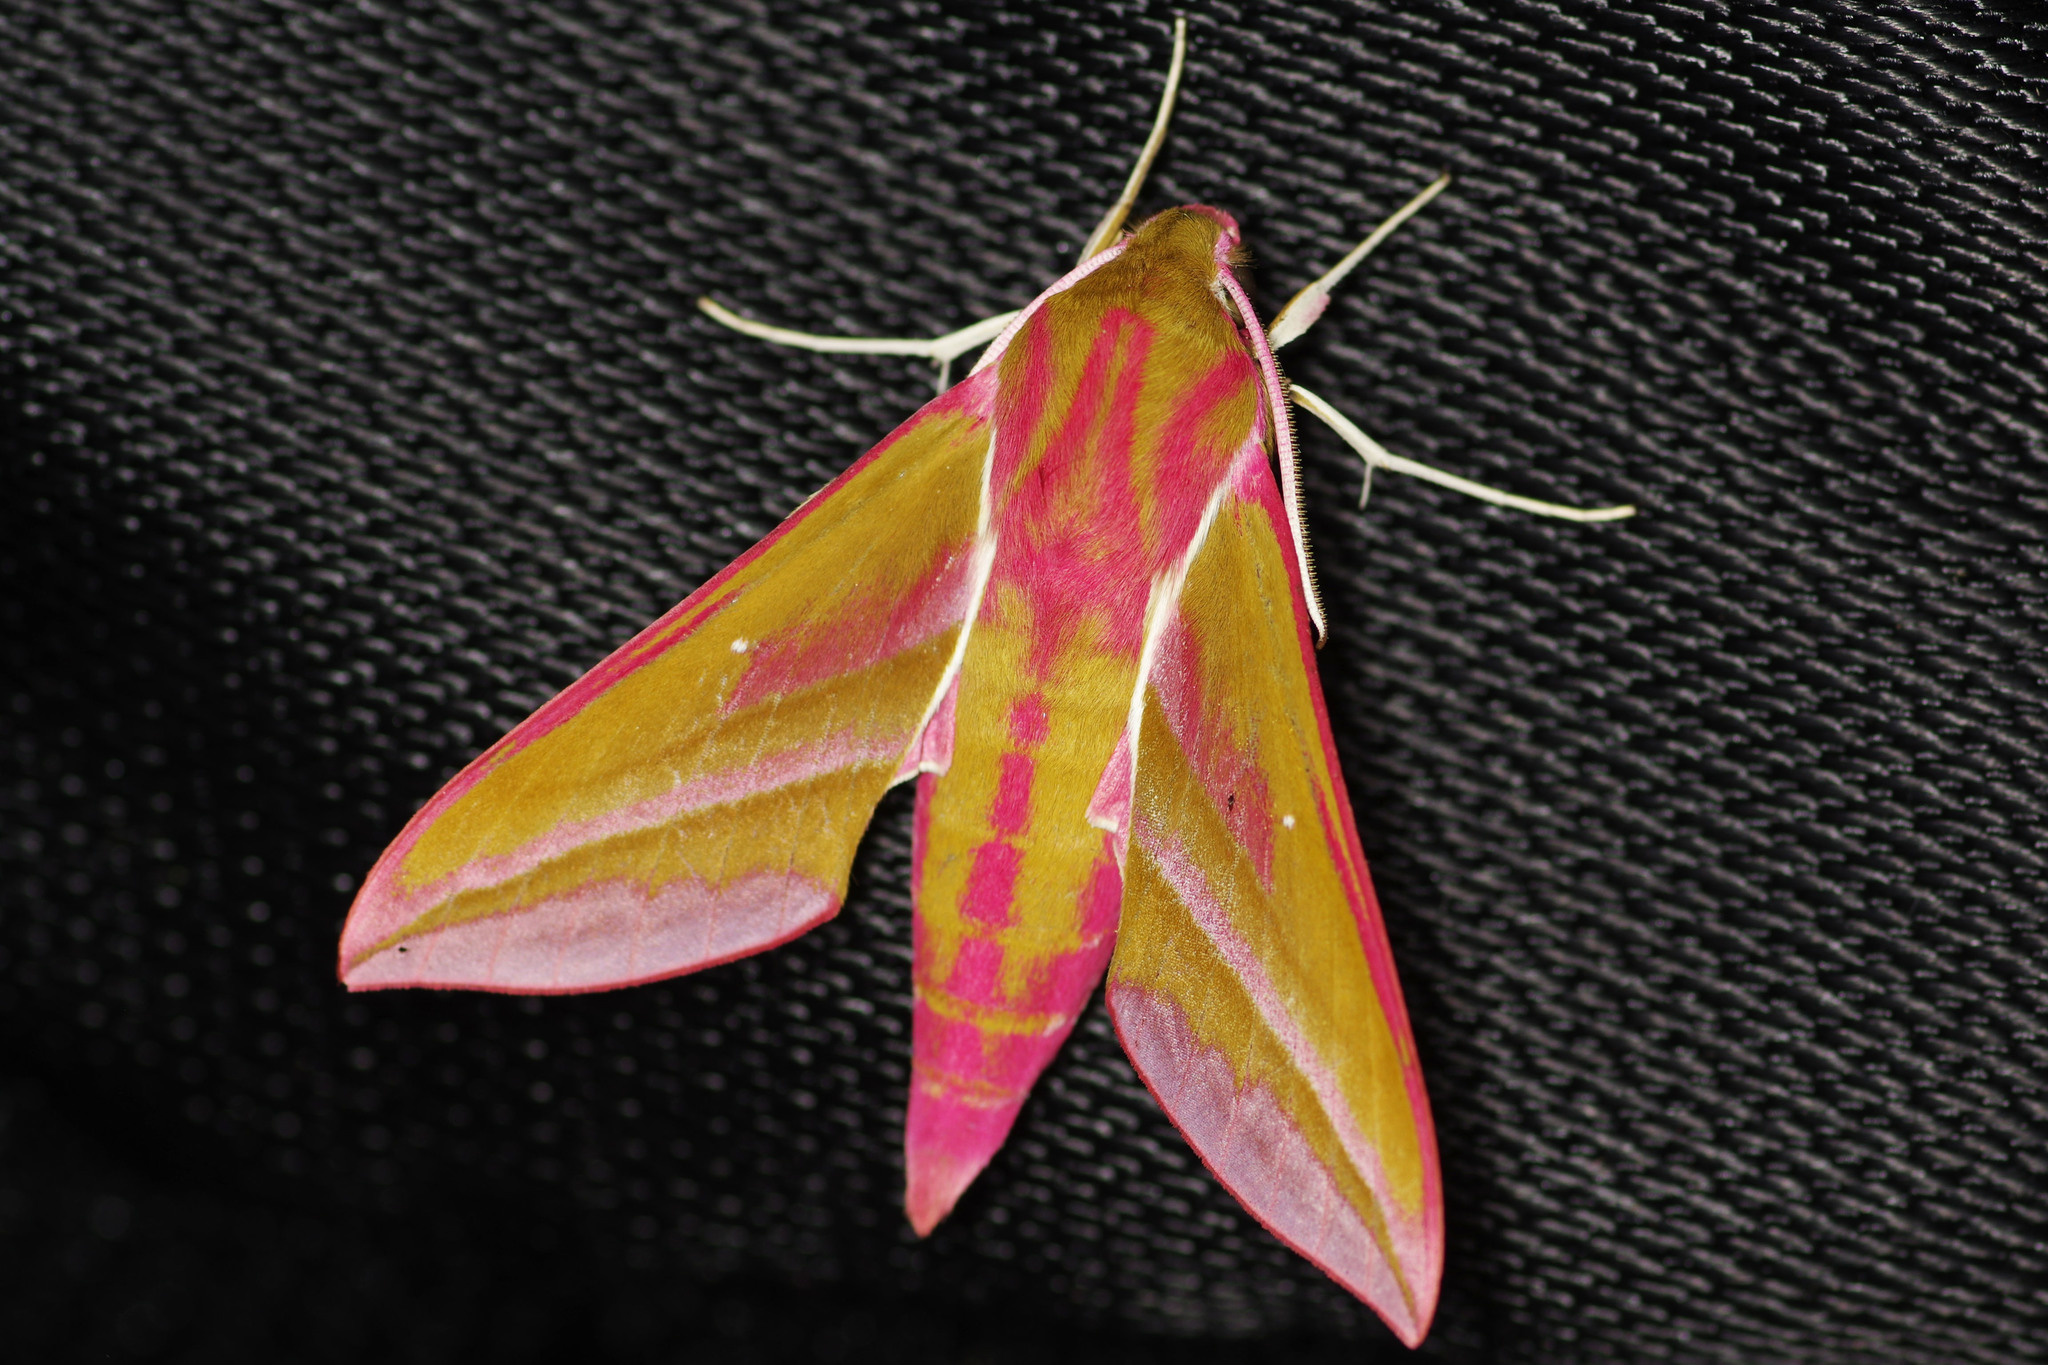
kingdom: Animalia
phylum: Arthropoda
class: Insecta
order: Lepidoptera
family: Sphingidae
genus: Deilephila
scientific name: Deilephila elpenor
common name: Elephant hawk-moth
